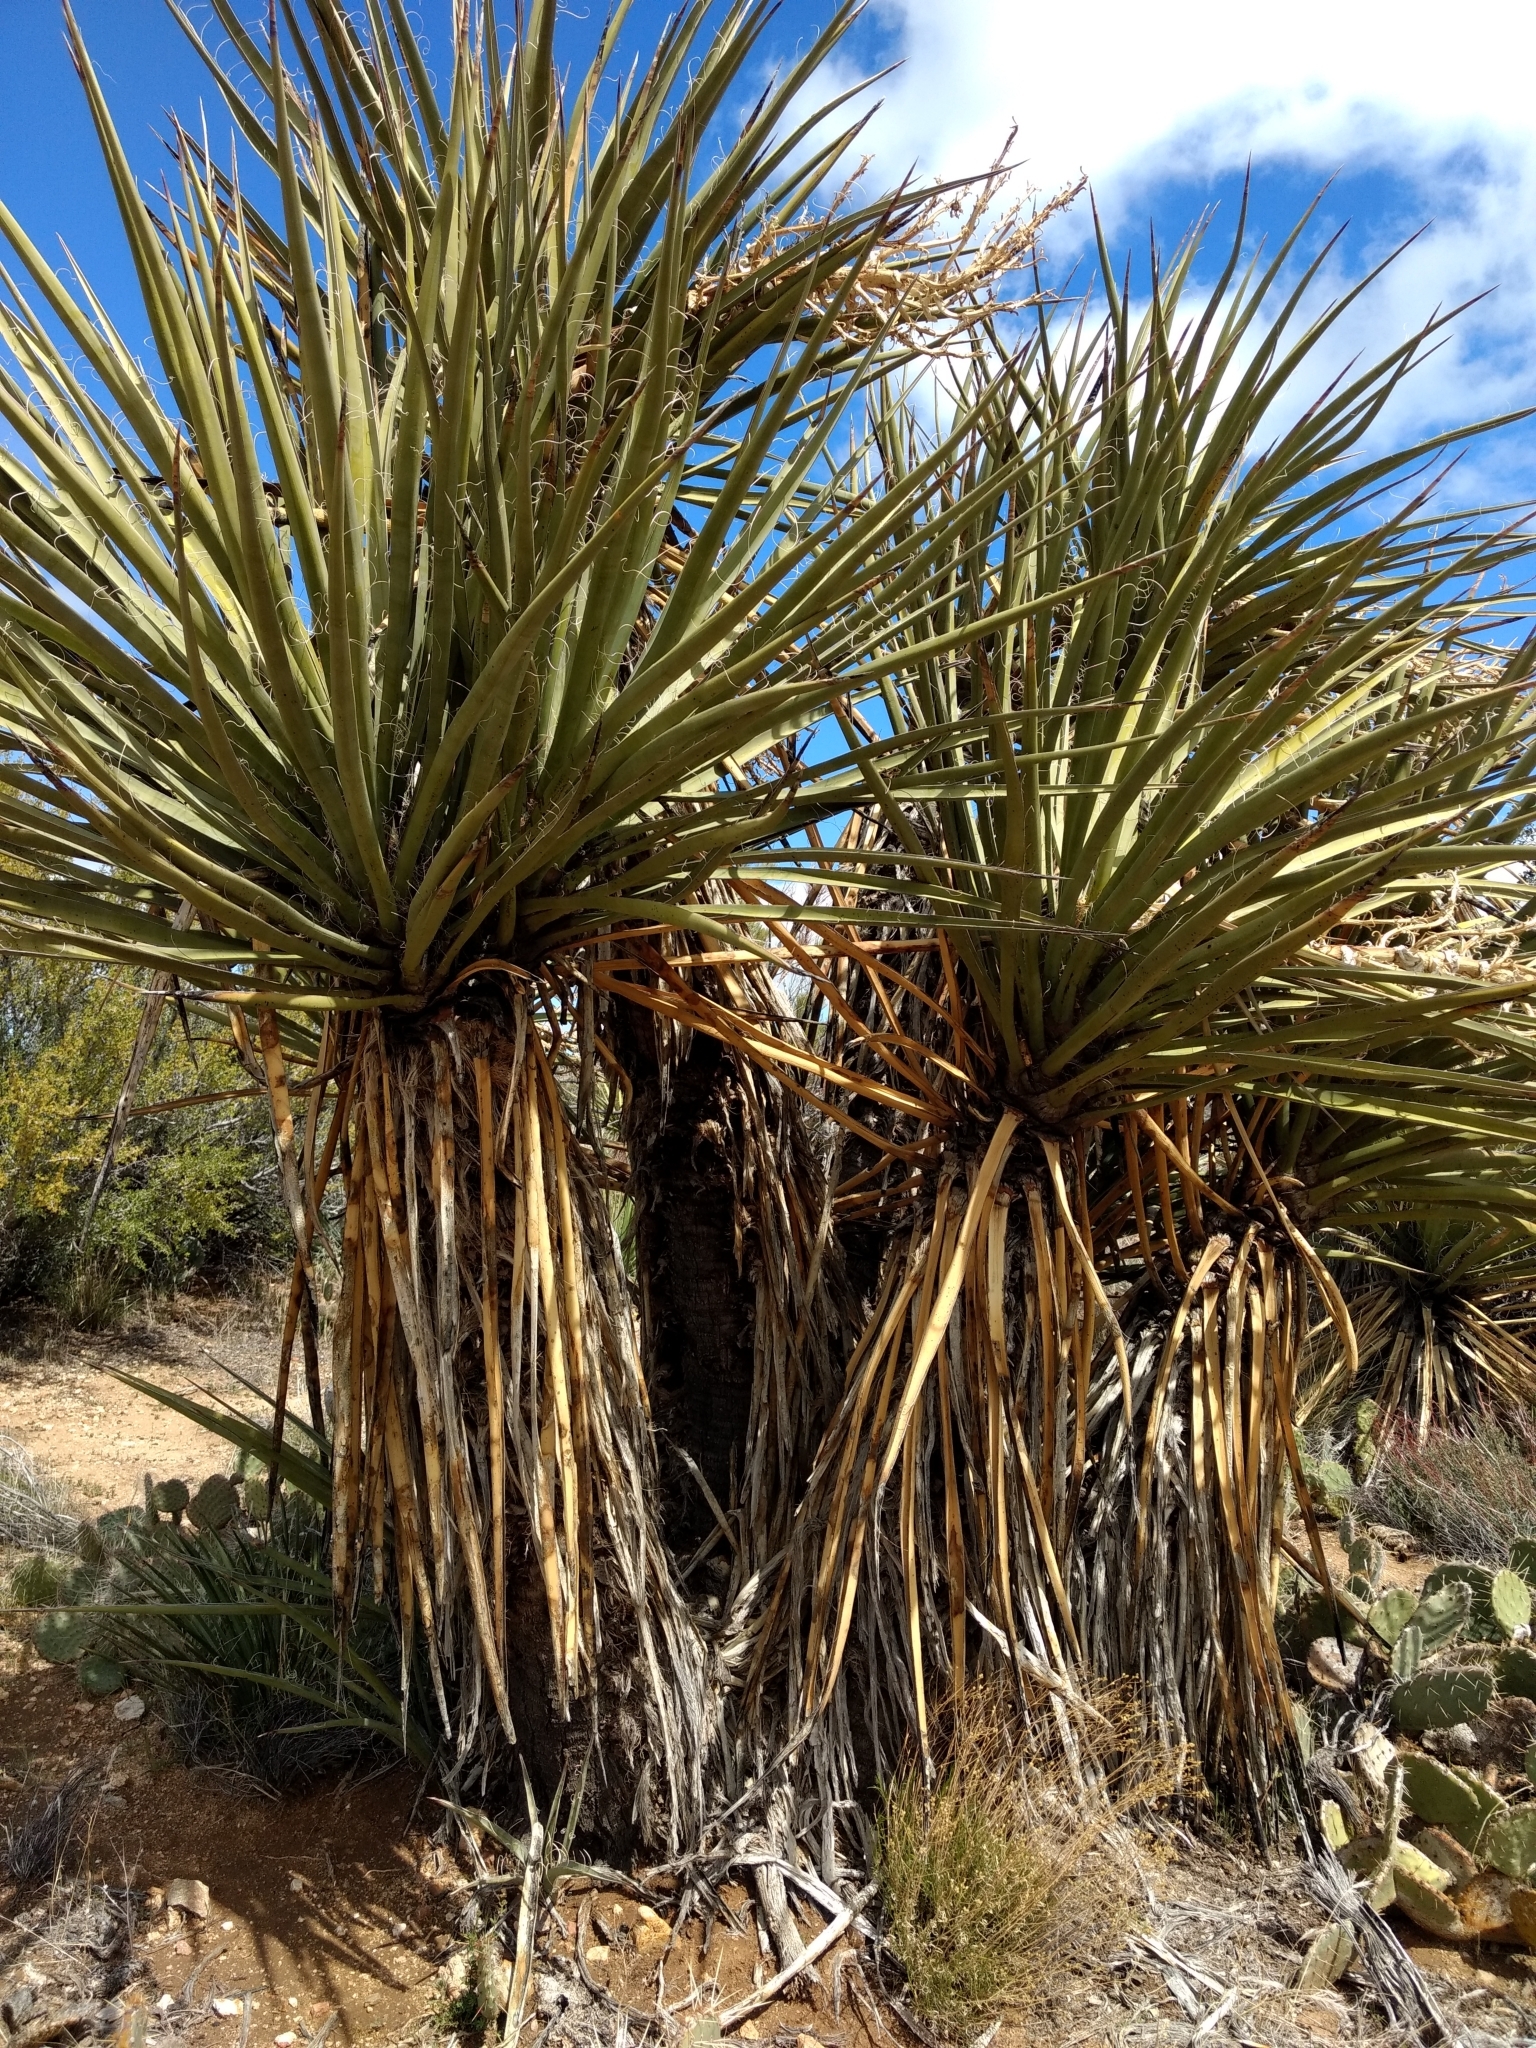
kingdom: Plantae
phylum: Tracheophyta
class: Liliopsida
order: Asparagales
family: Asparagaceae
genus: Yucca
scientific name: Yucca schidigera
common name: Mojave yucca
